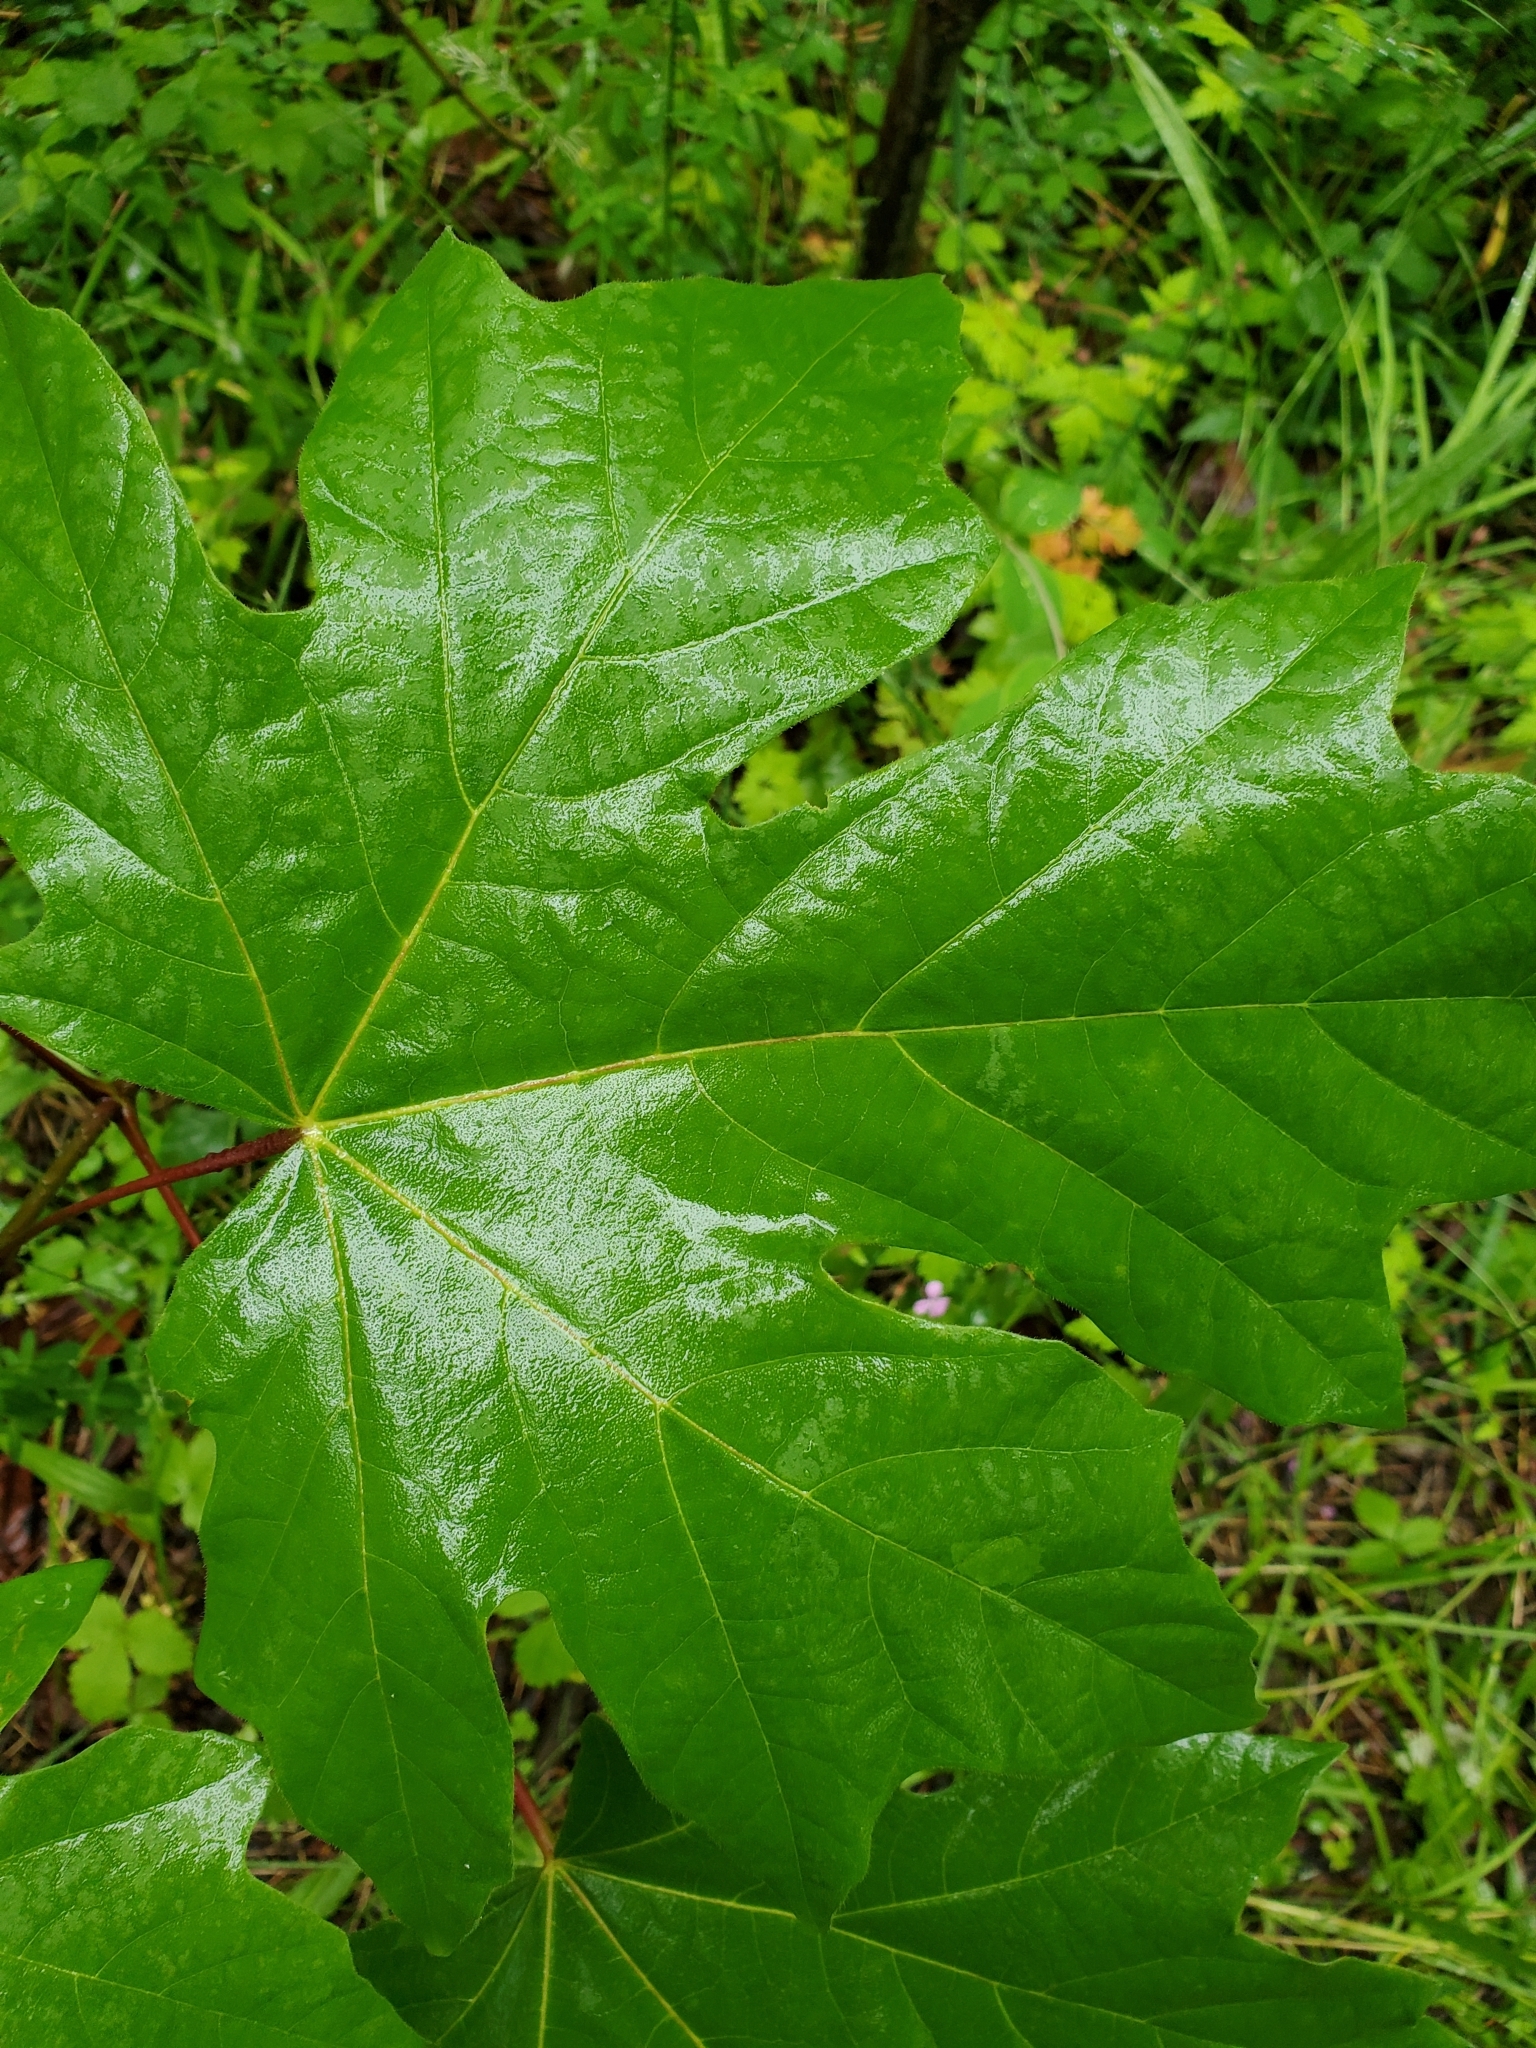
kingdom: Plantae
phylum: Tracheophyta
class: Magnoliopsida
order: Sapindales
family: Sapindaceae
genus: Acer
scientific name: Acer macrophyllum
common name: Oregon maple
